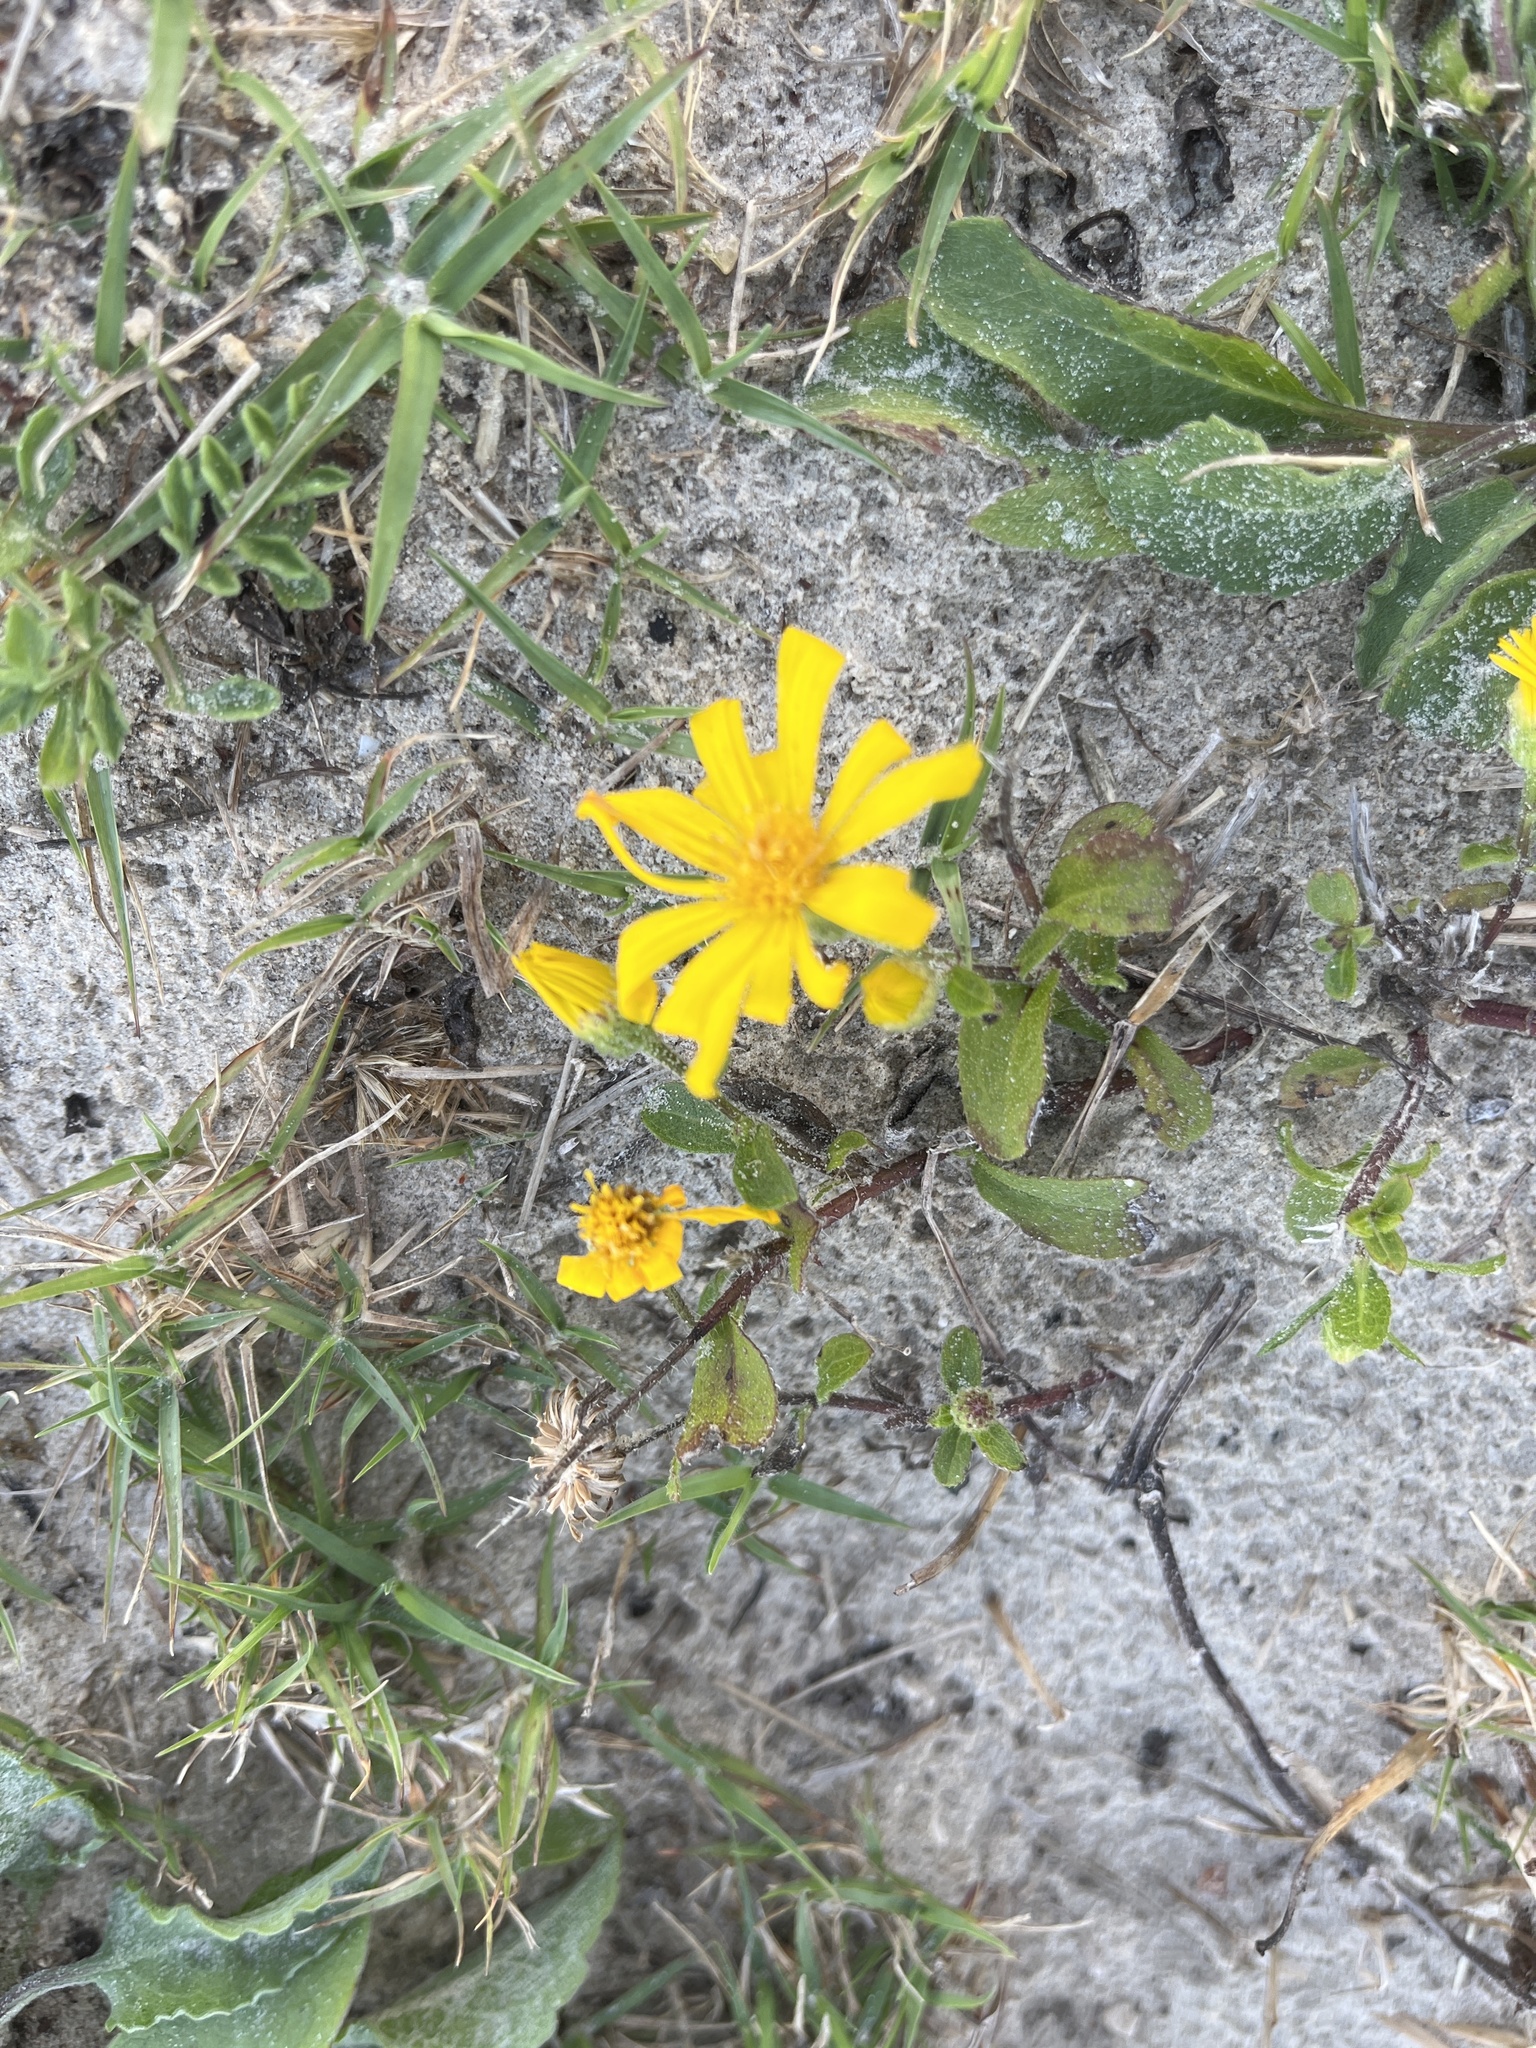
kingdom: Plantae
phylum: Tracheophyta
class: Magnoliopsida
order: Asterales
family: Asteraceae
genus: Heterotheca
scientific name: Heterotheca subaxillaris
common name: Camphorweed
